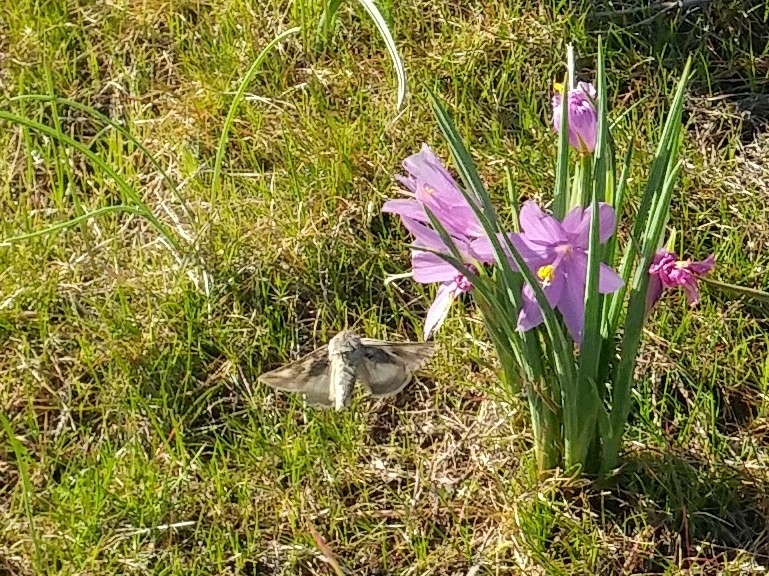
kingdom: Plantae
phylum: Tracheophyta
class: Liliopsida
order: Asparagales
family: Iridaceae
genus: Olsynium
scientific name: Olsynium douglasii
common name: Douglas' grasswidow
